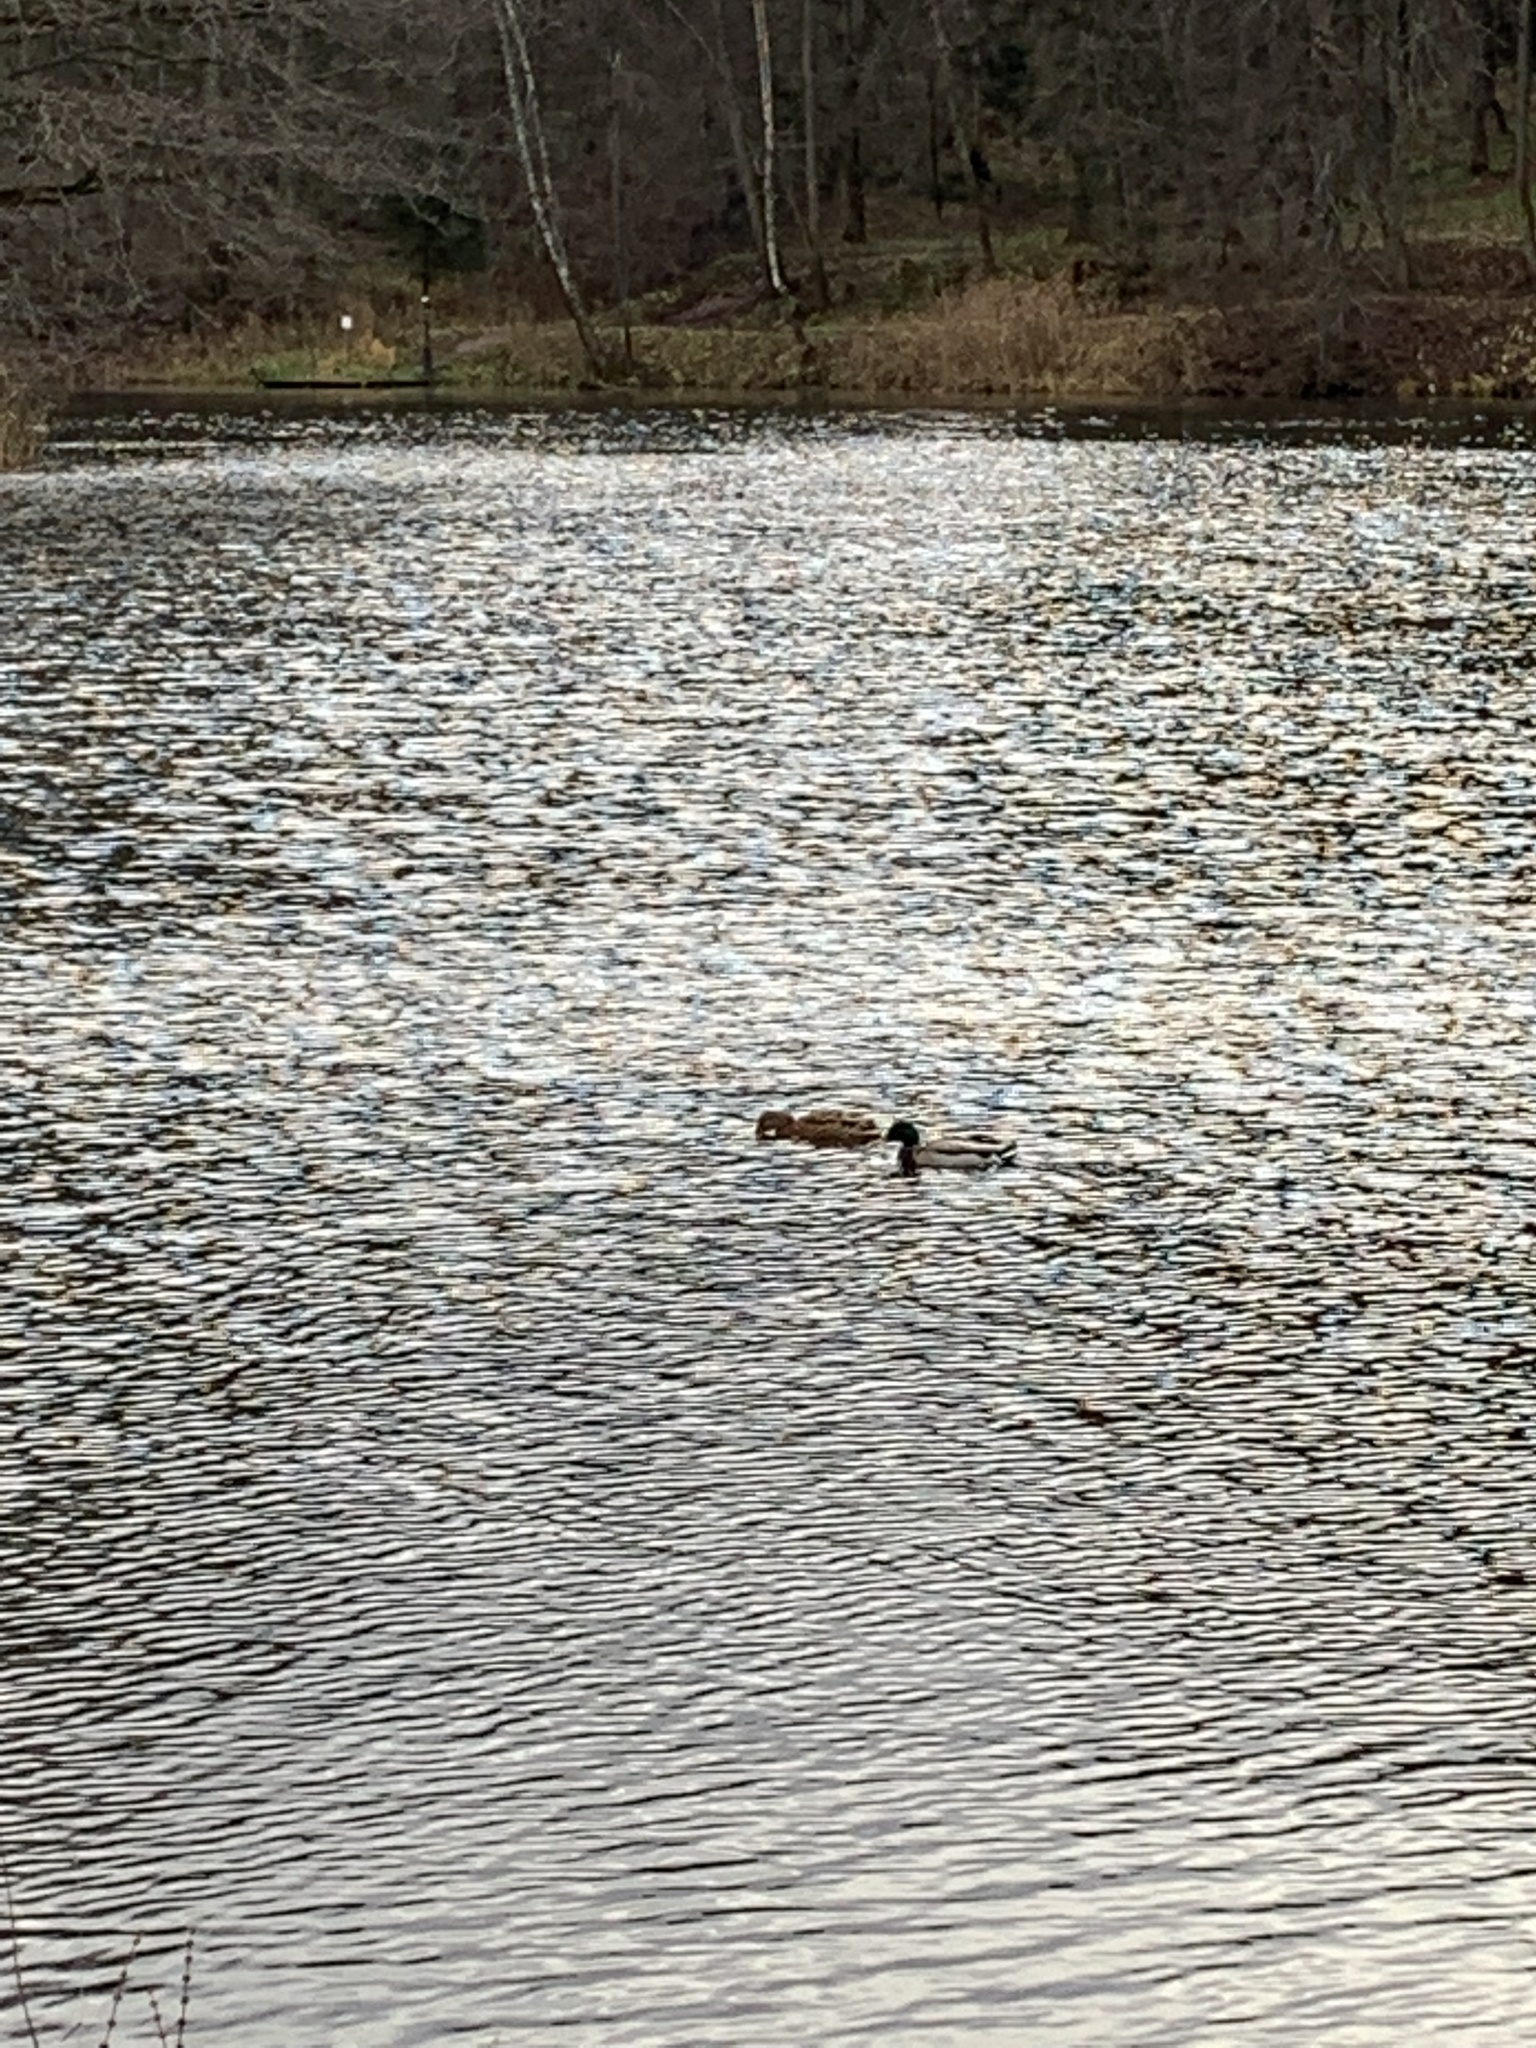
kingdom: Animalia
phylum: Chordata
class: Aves
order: Anseriformes
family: Anatidae
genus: Anas
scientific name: Anas platyrhynchos
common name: Mallard
